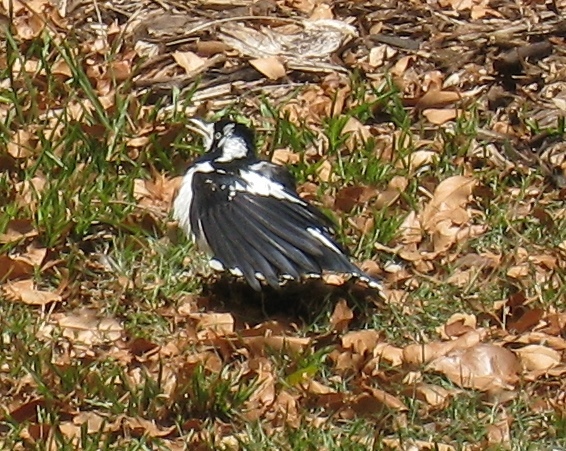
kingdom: Animalia
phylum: Chordata
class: Aves
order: Passeriformes
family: Monarchidae
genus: Grallina
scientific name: Grallina cyanoleuca
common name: Magpie-lark
